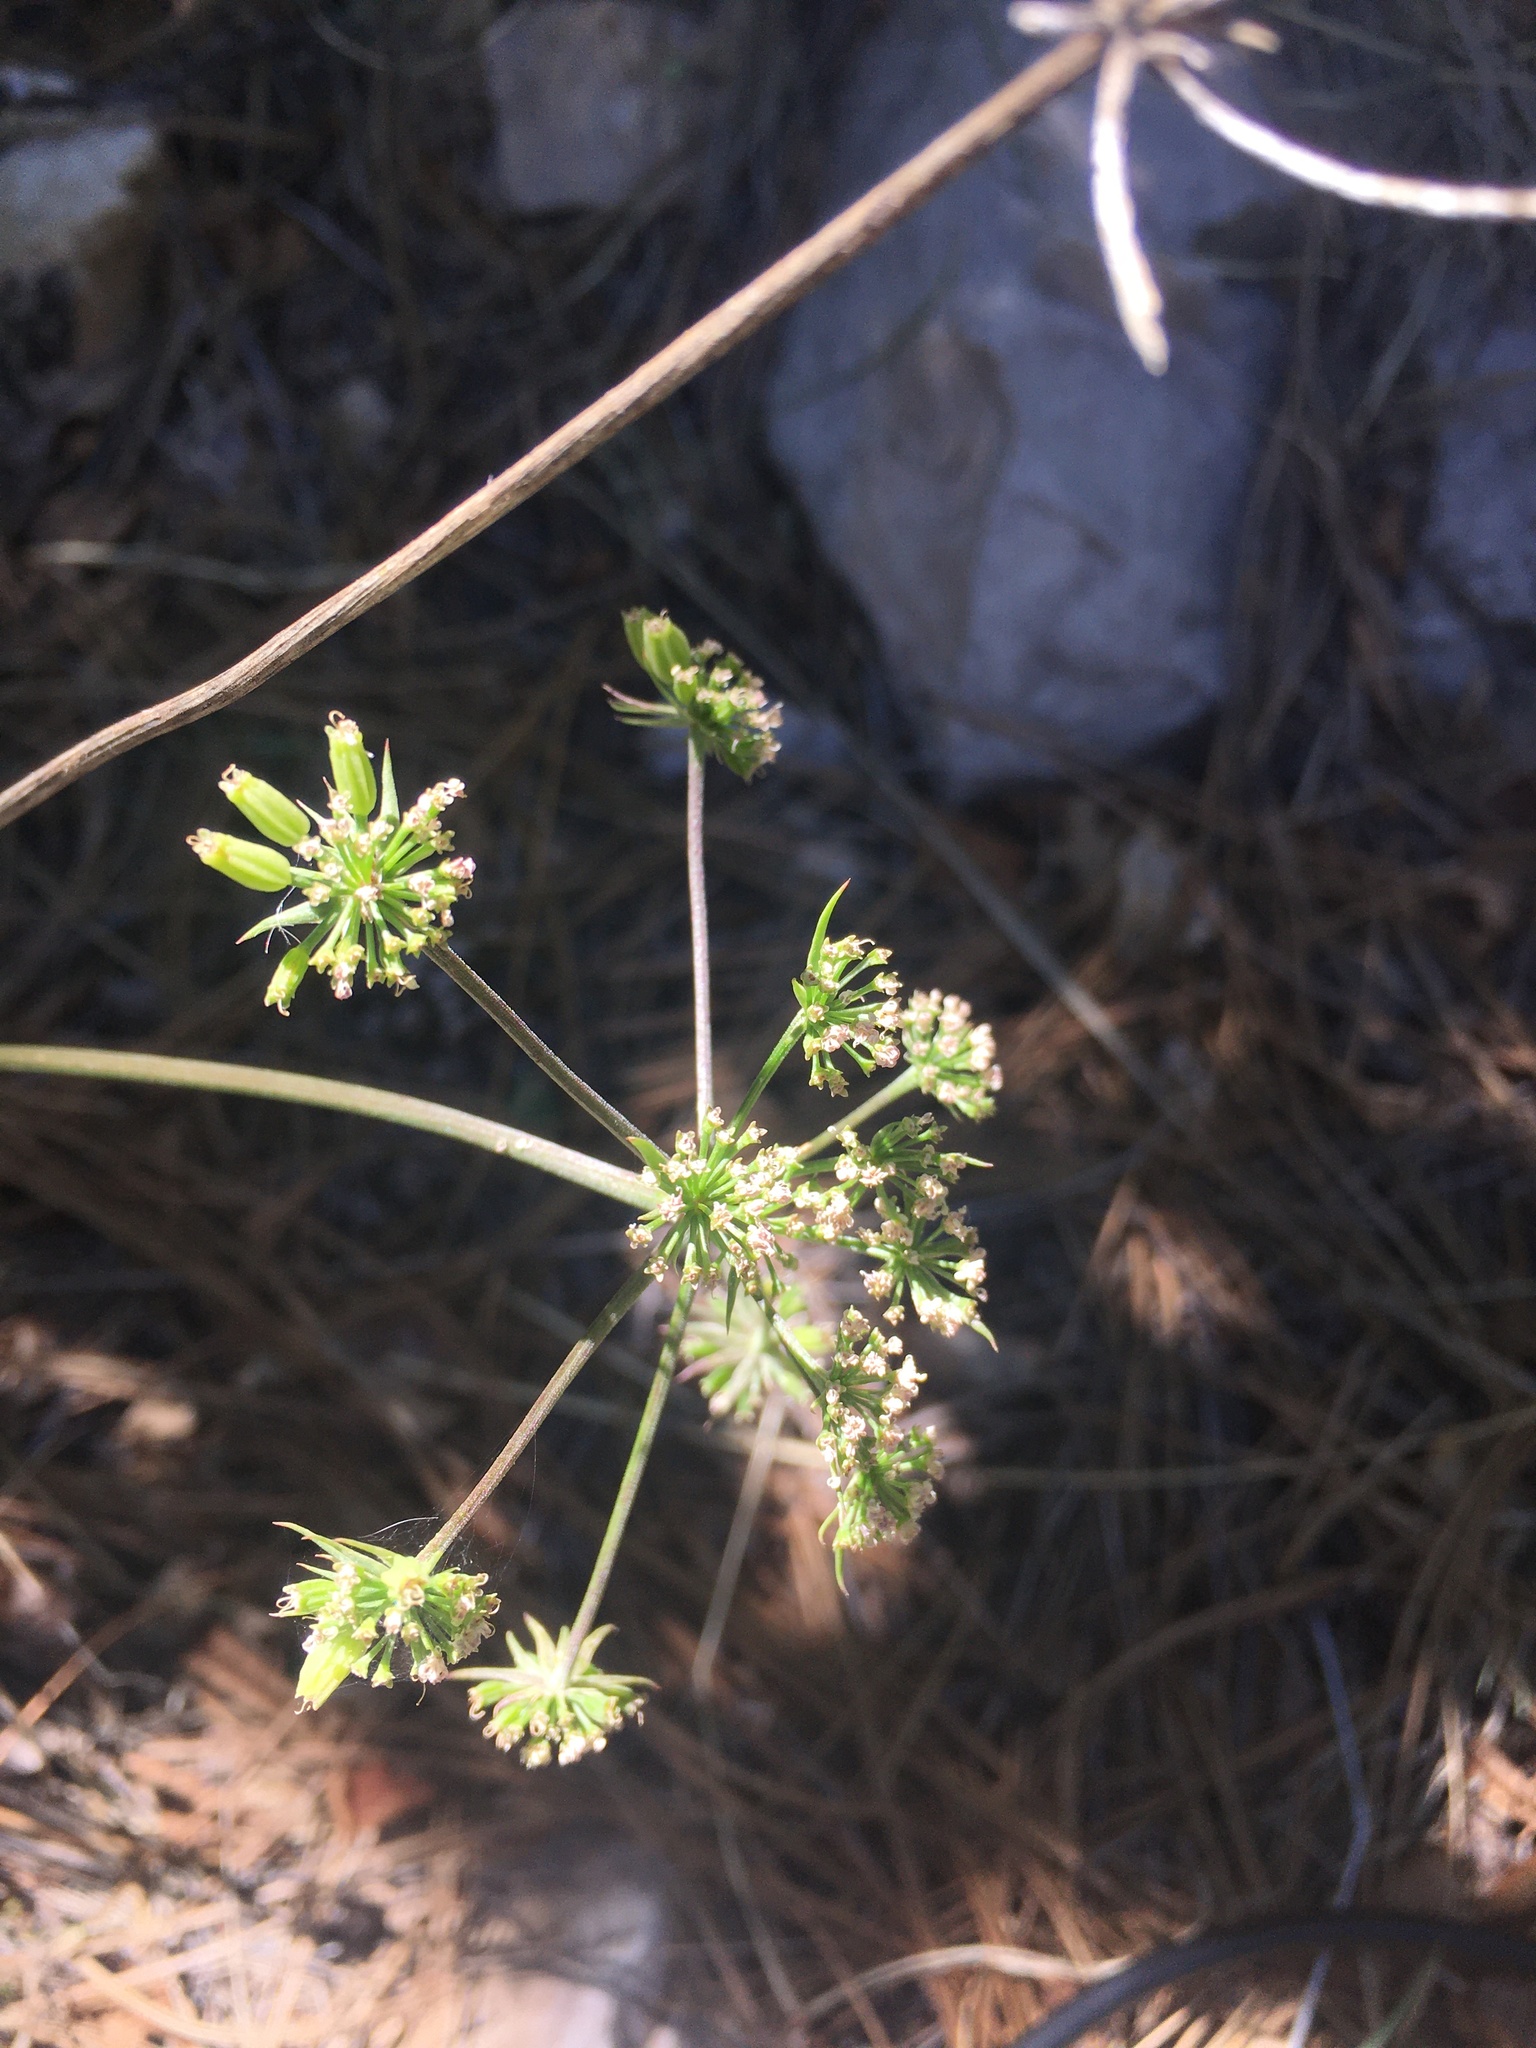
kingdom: Plantae
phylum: Tracheophyta
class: Magnoliopsida
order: Apiales
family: Apiaceae
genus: Pseudocymopterus
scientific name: Pseudocymopterus longiradiatus
